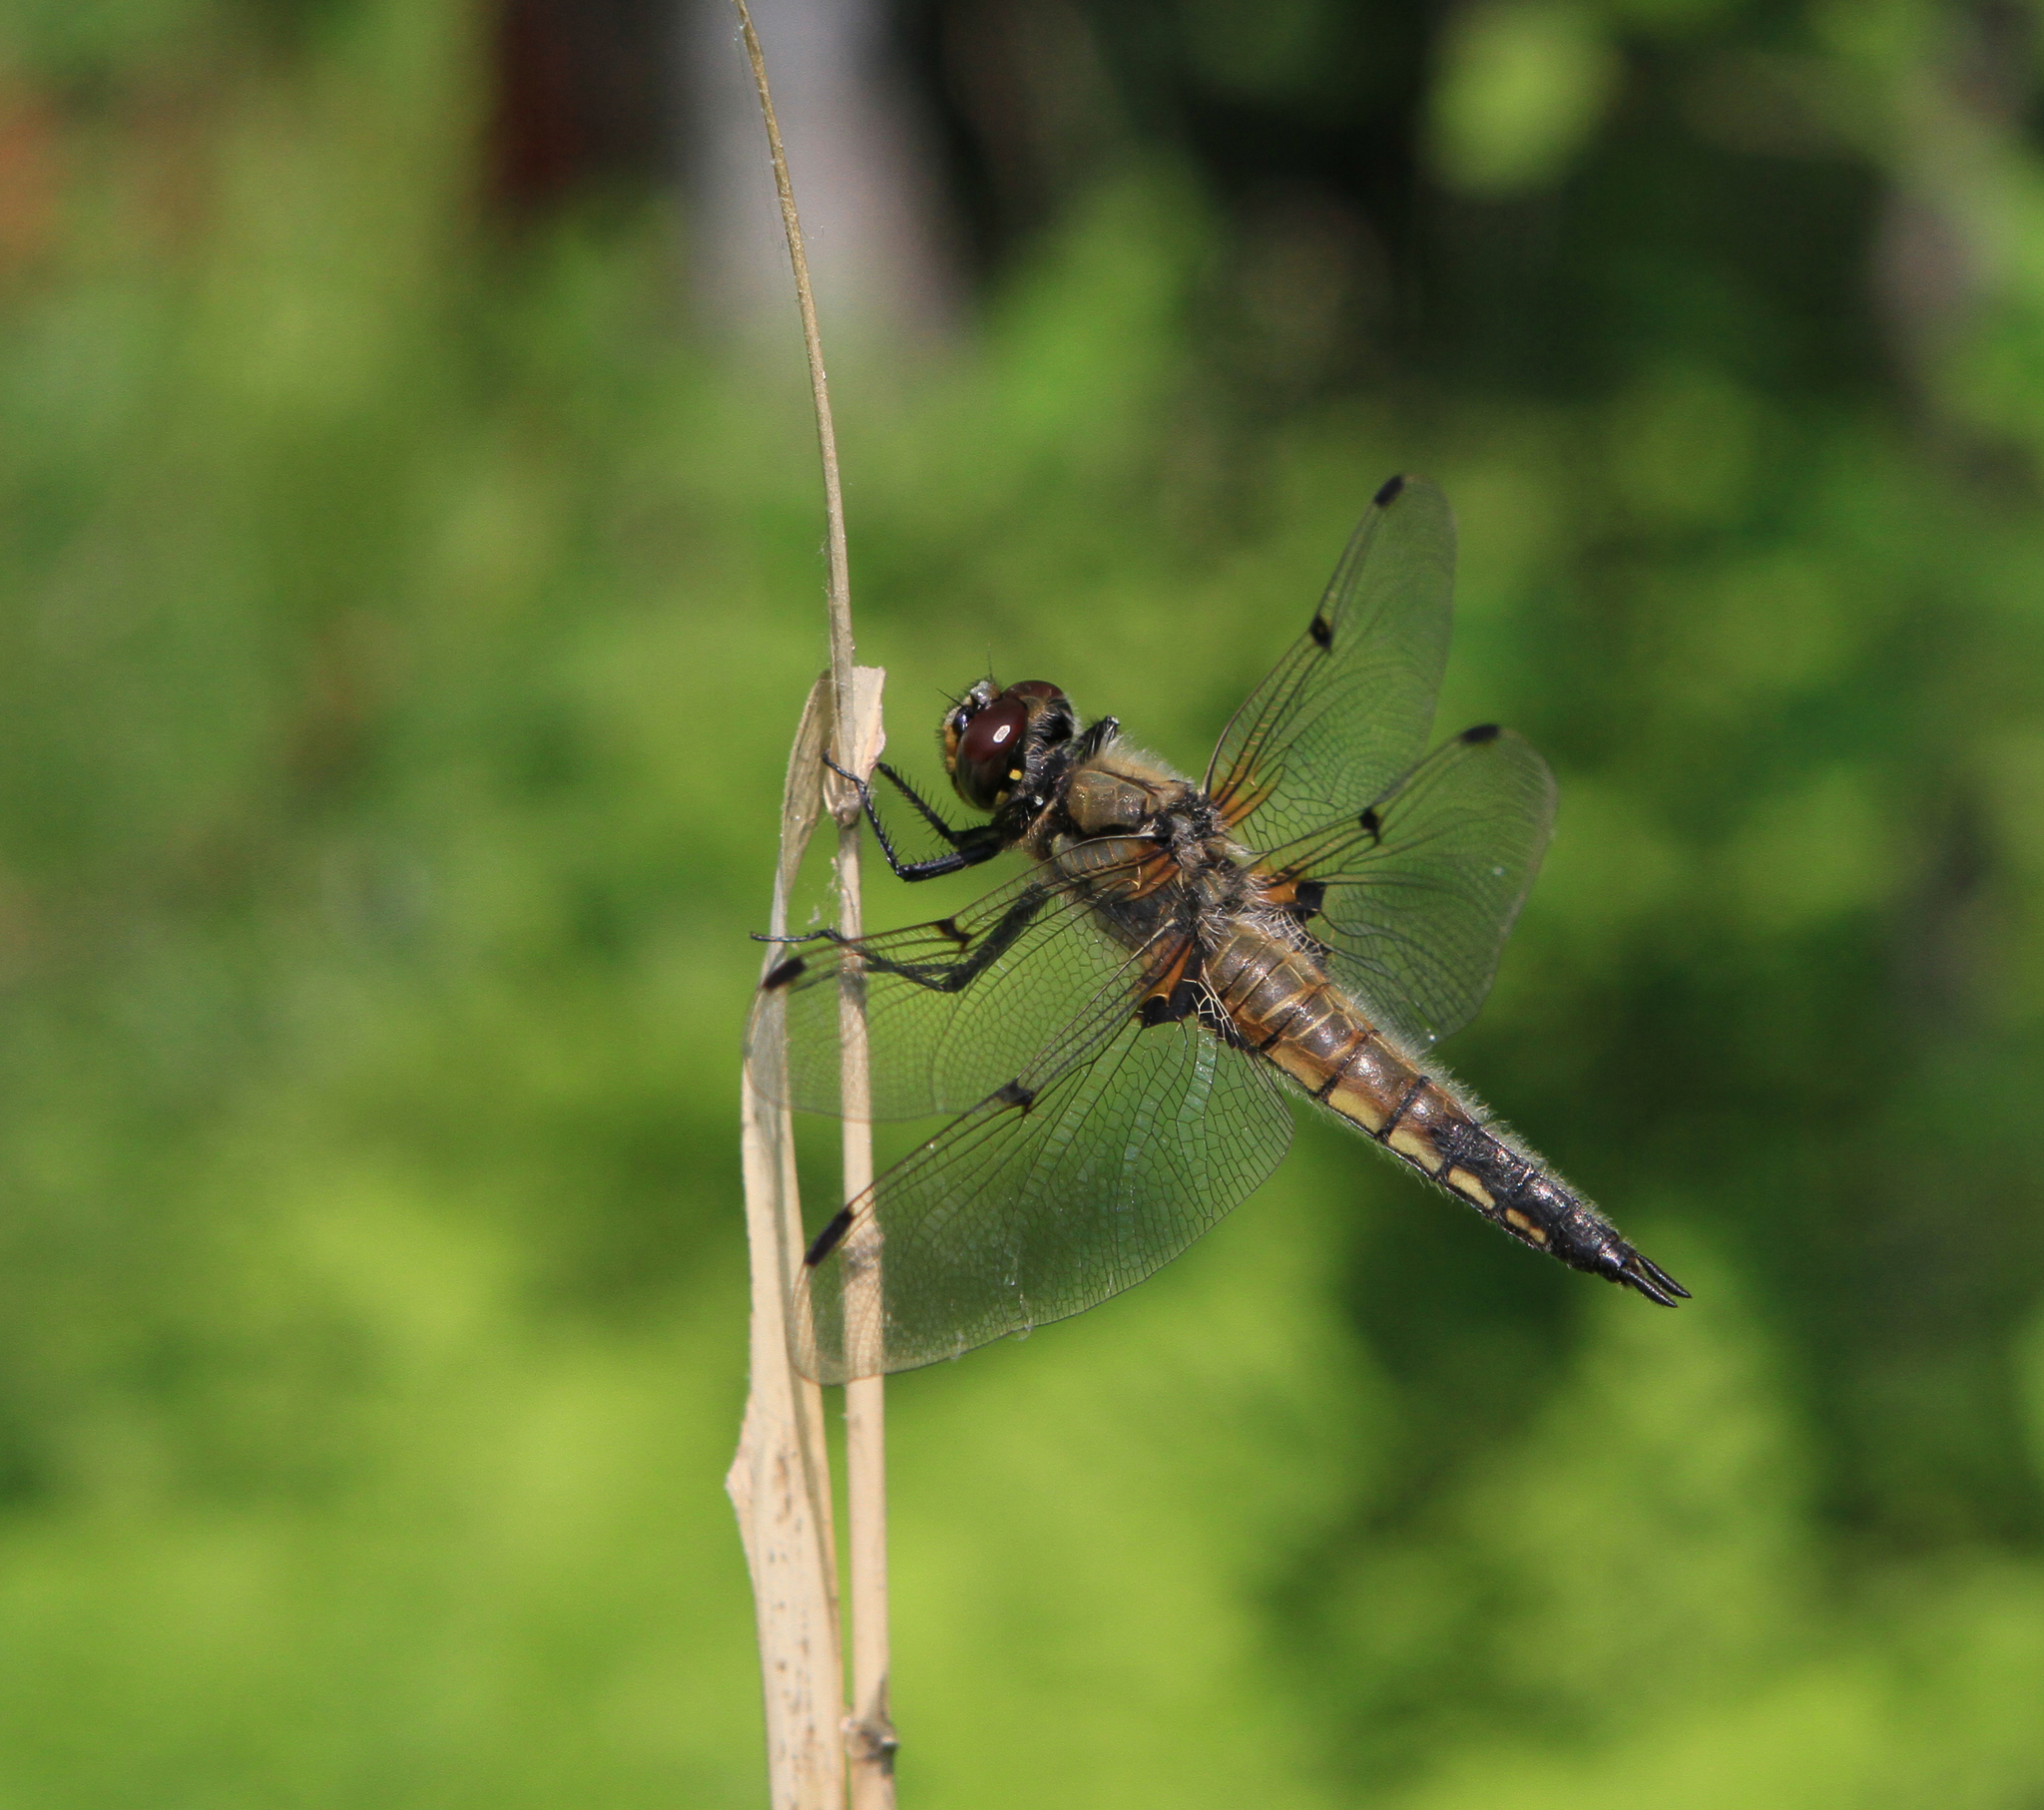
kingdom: Animalia
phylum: Arthropoda
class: Insecta
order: Odonata
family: Libellulidae
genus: Libellula
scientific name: Libellula quadrimaculata
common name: Four-spotted chaser
